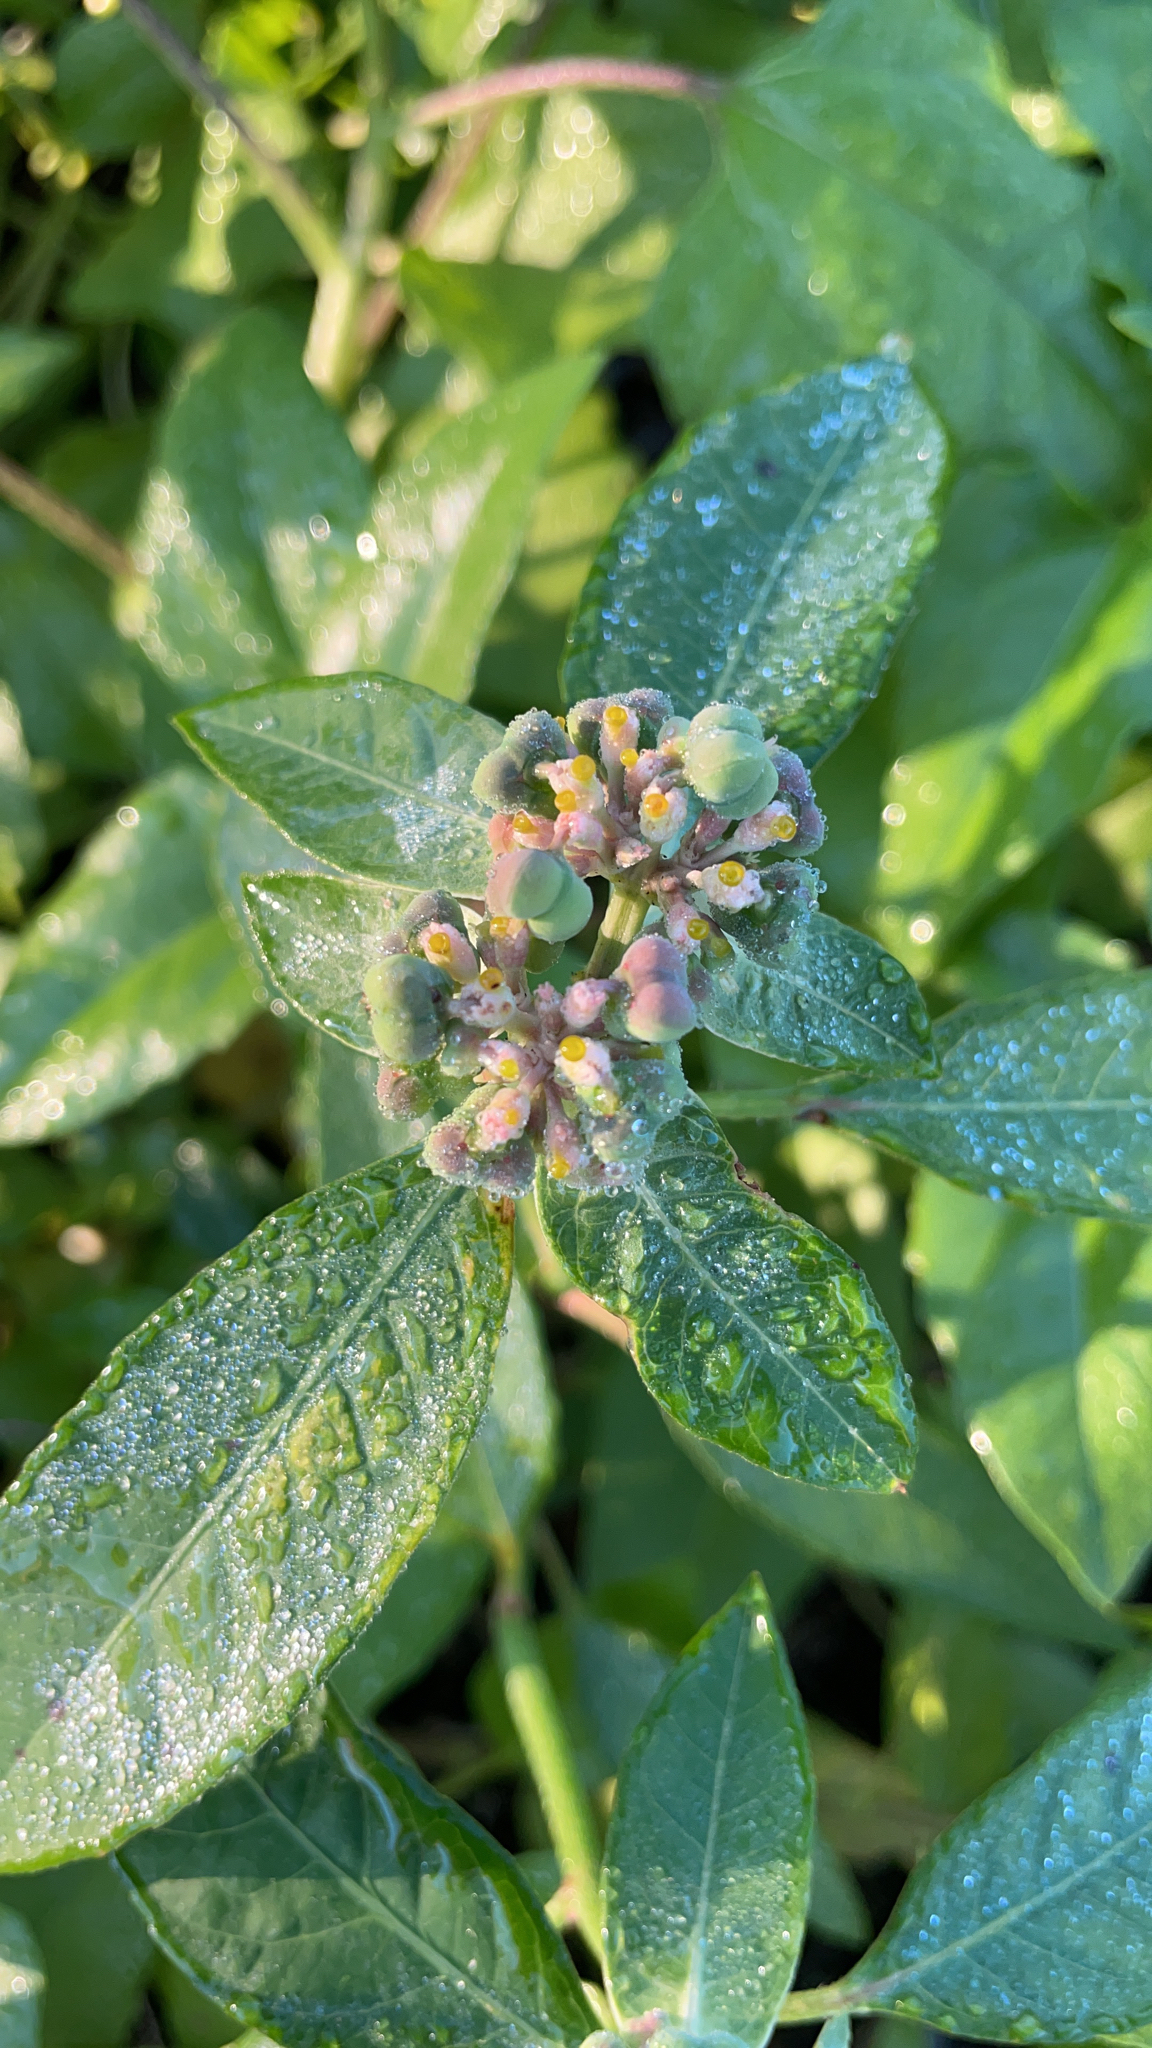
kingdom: Plantae
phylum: Tracheophyta
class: Magnoliopsida
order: Malpighiales
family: Euphorbiaceae
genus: Euphorbia
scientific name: Euphorbia heterophylla
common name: Mexican fireplant
